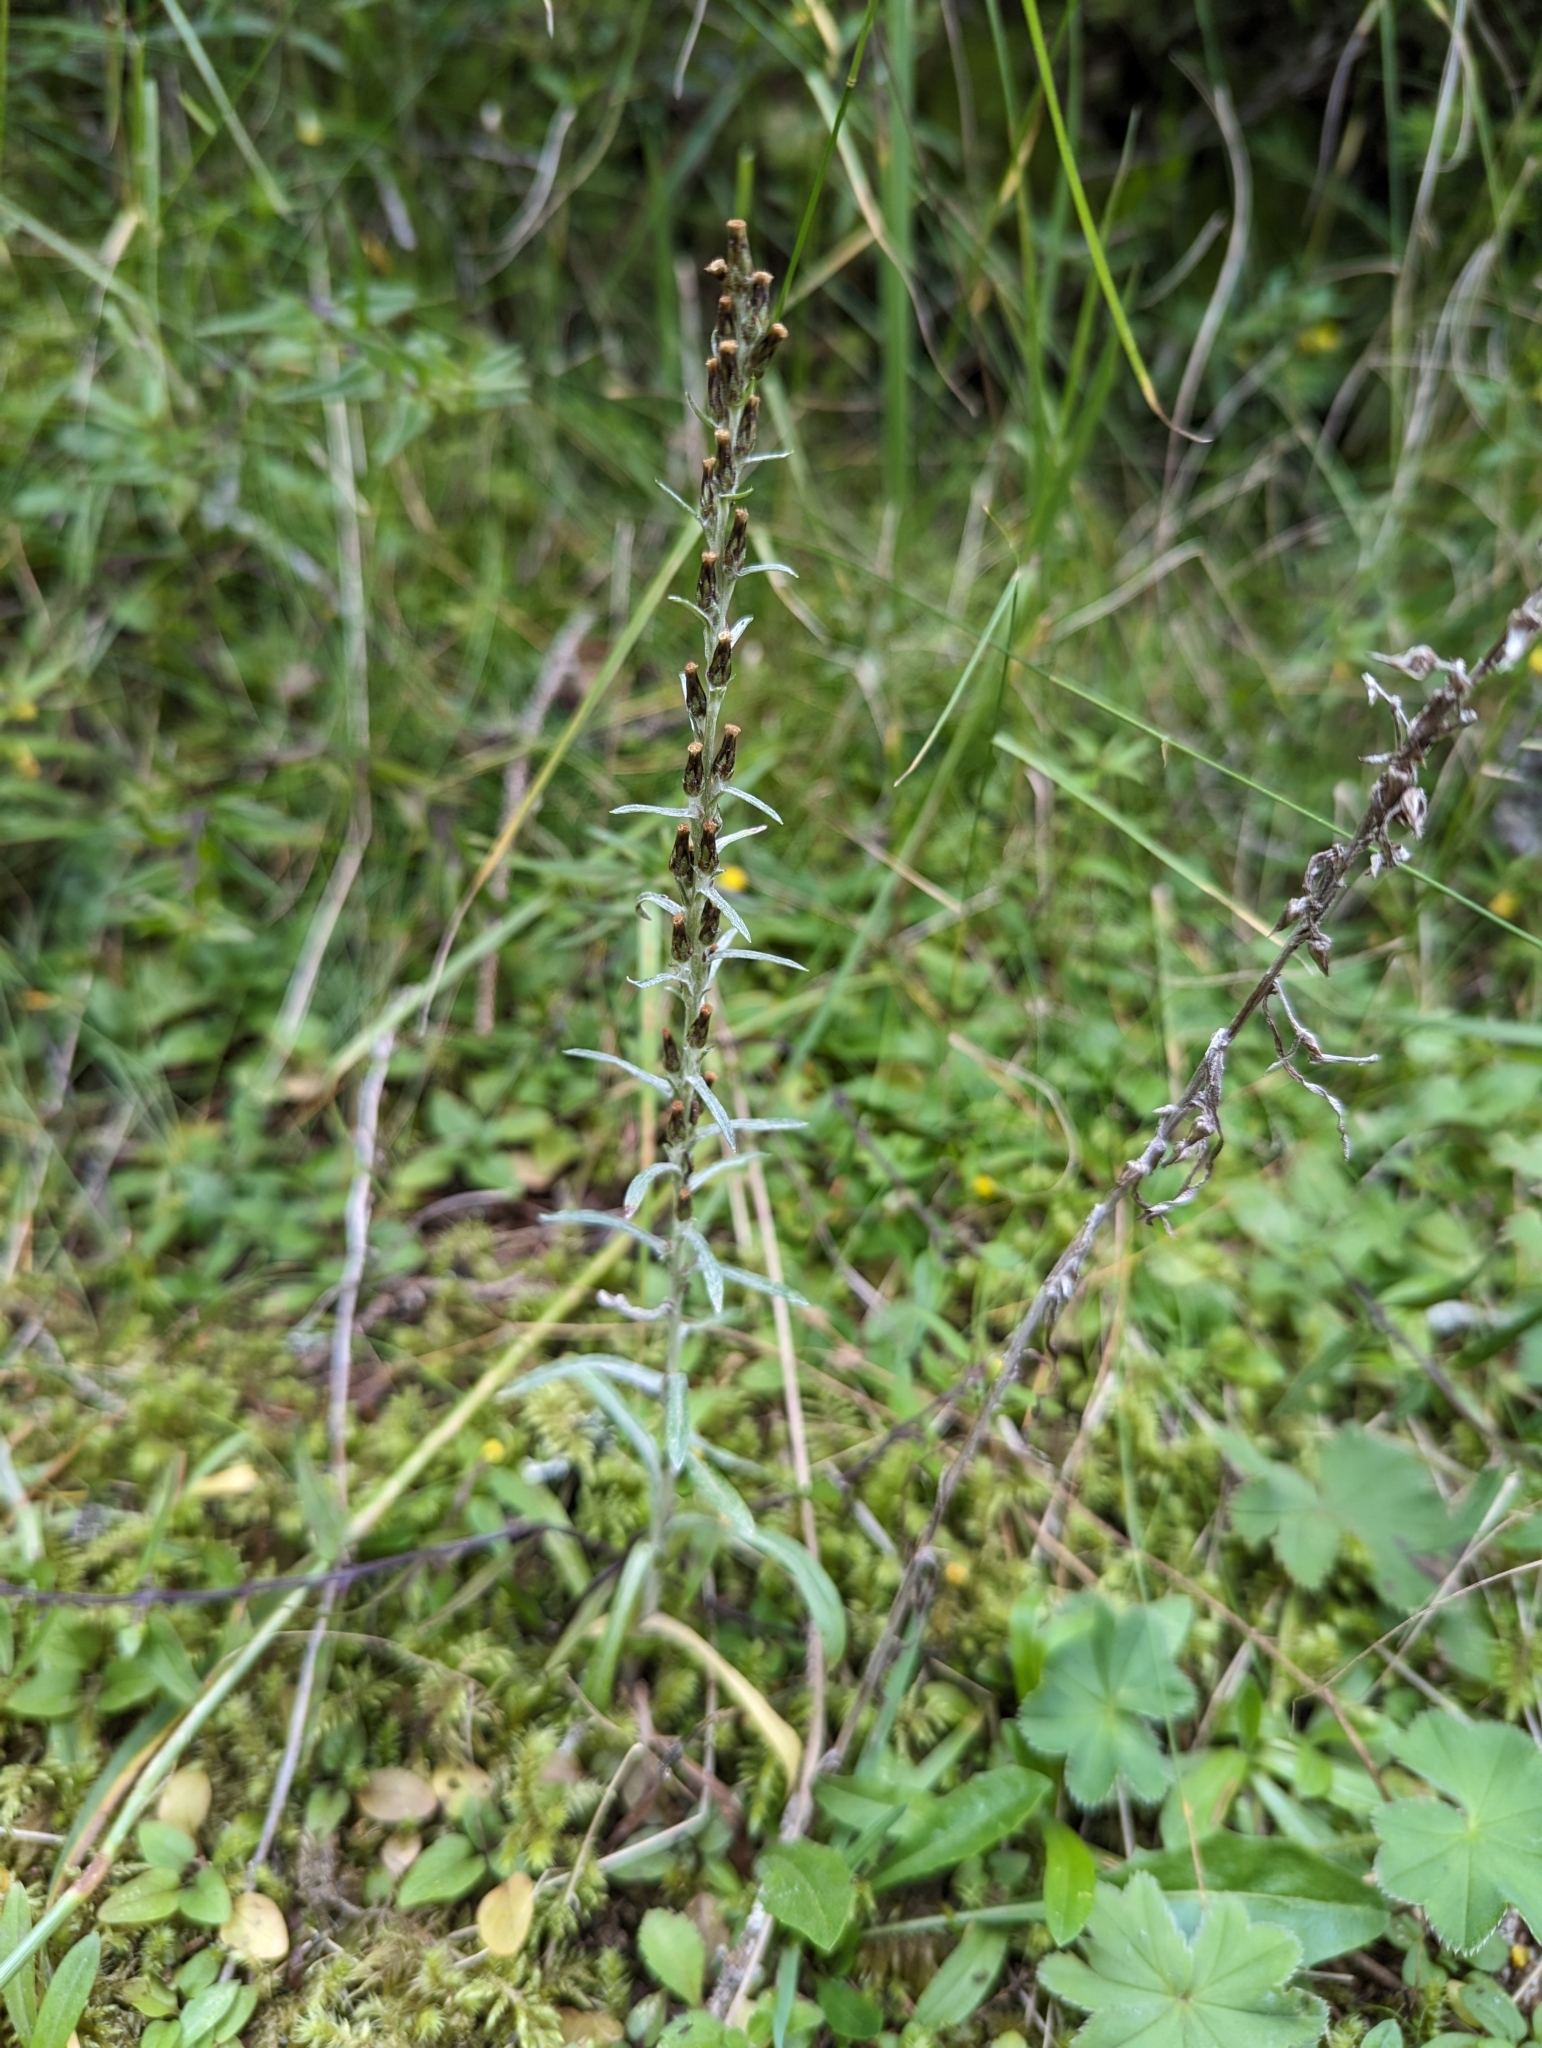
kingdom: Plantae
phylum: Tracheophyta
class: Magnoliopsida
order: Asterales
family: Asteraceae
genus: Omalotheca
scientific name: Omalotheca sylvatica
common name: Heath cudweed
